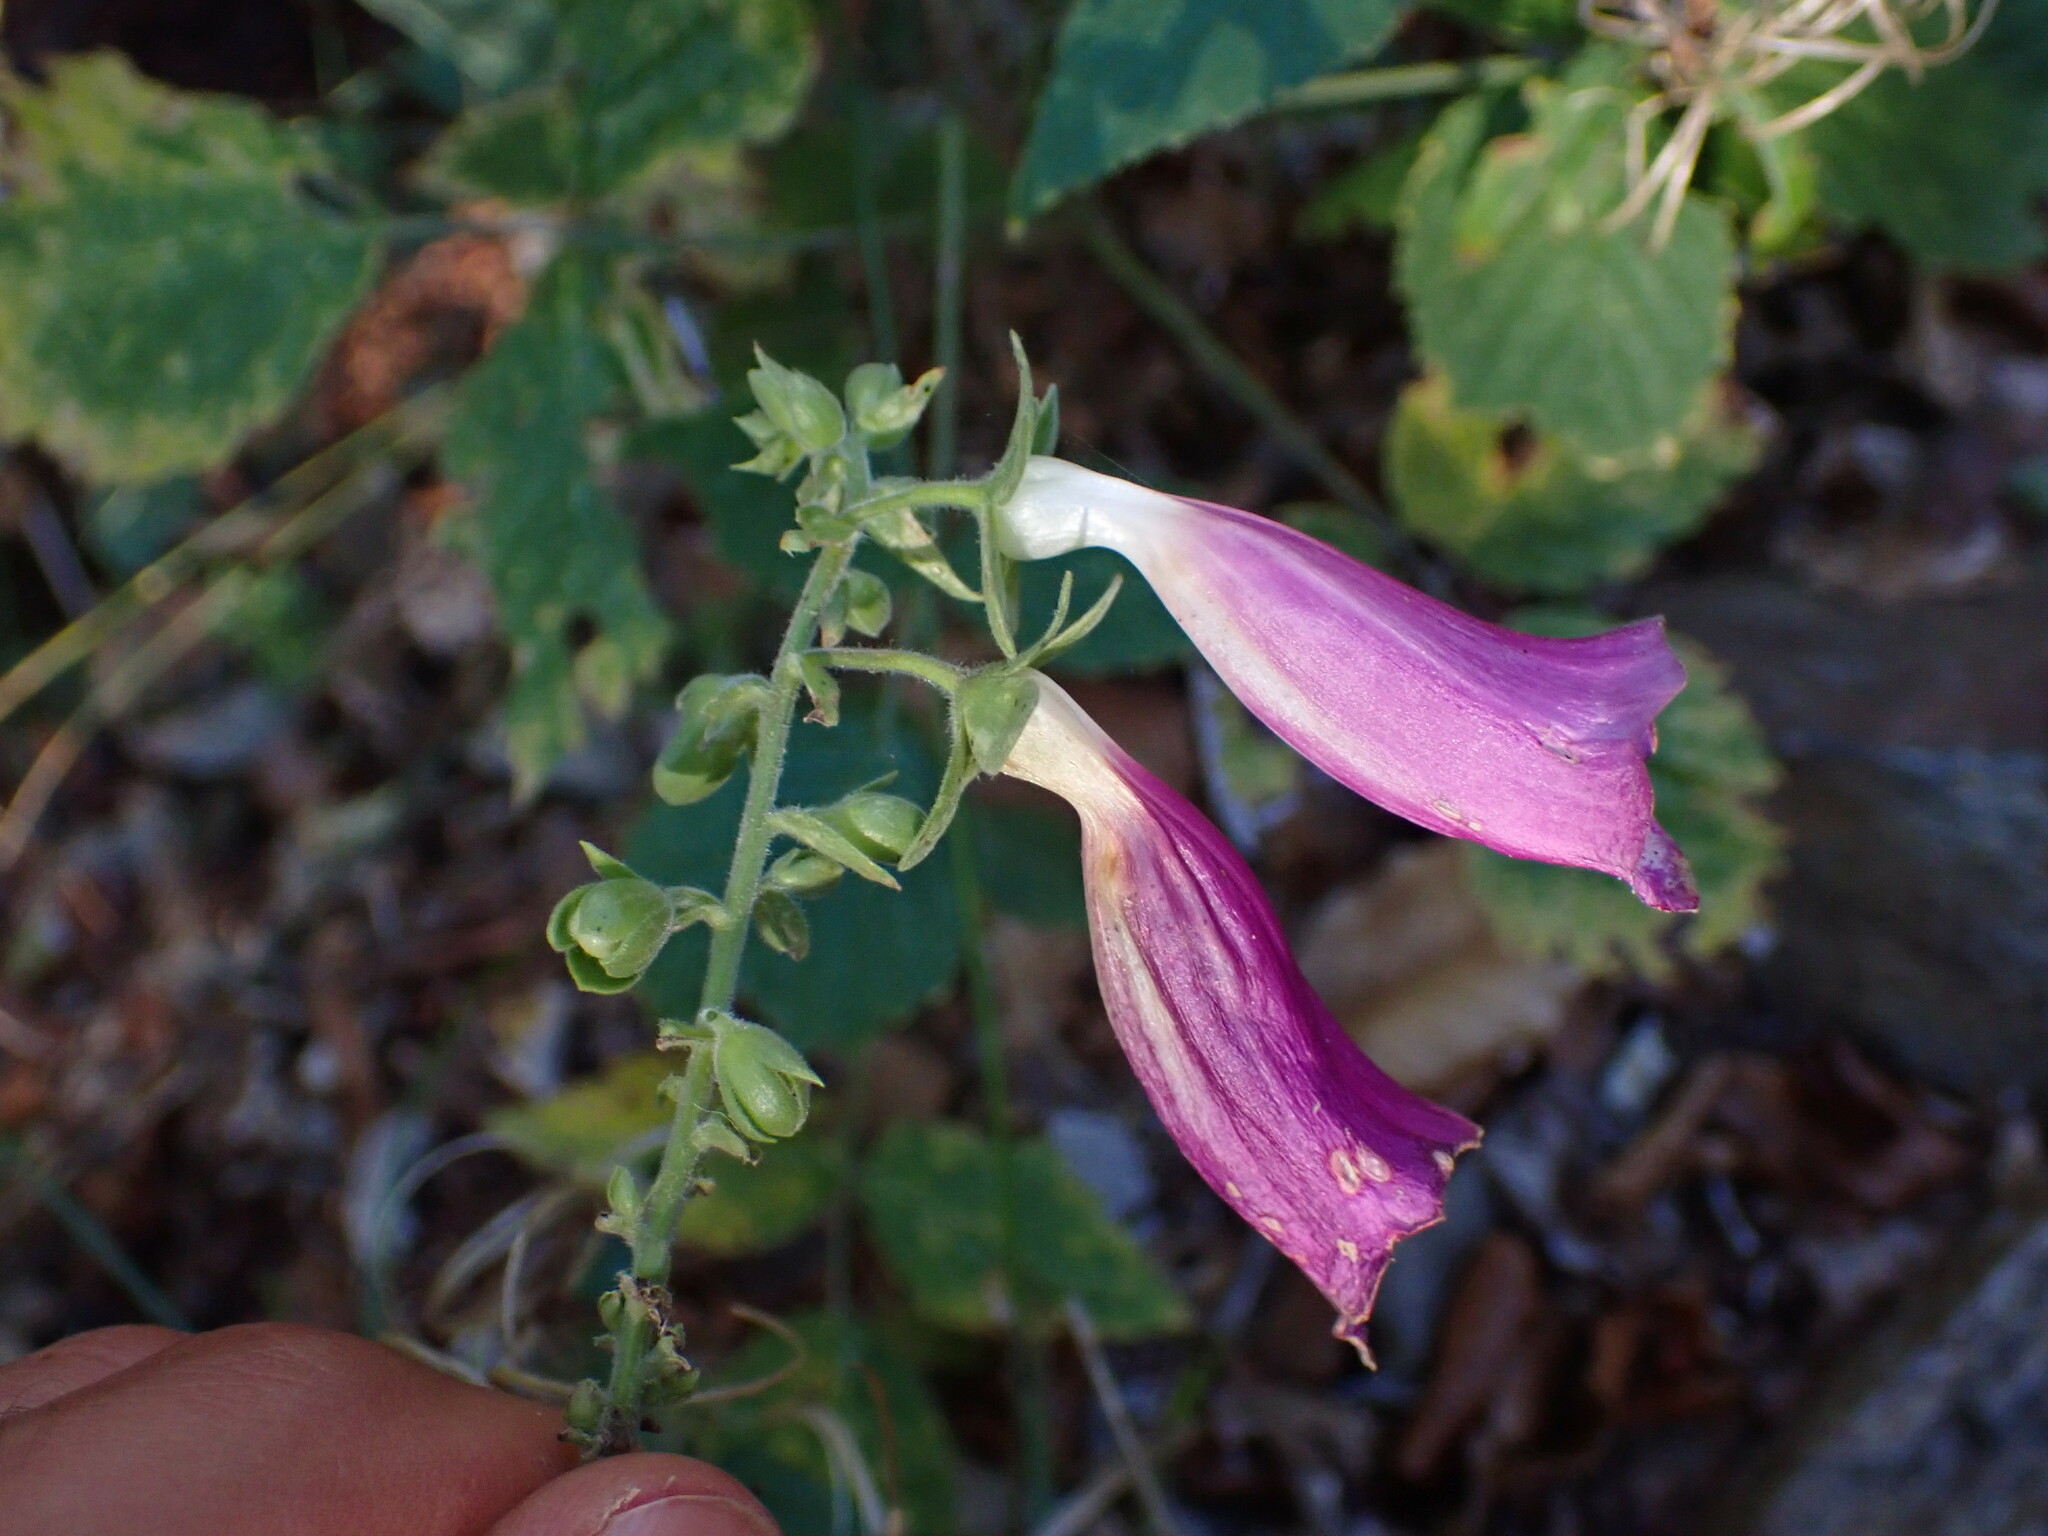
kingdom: Plantae
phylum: Tracheophyta
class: Magnoliopsida
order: Lamiales
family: Plantaginaceae
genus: Digitalis
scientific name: Digitalis purpurea
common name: Foxglove
